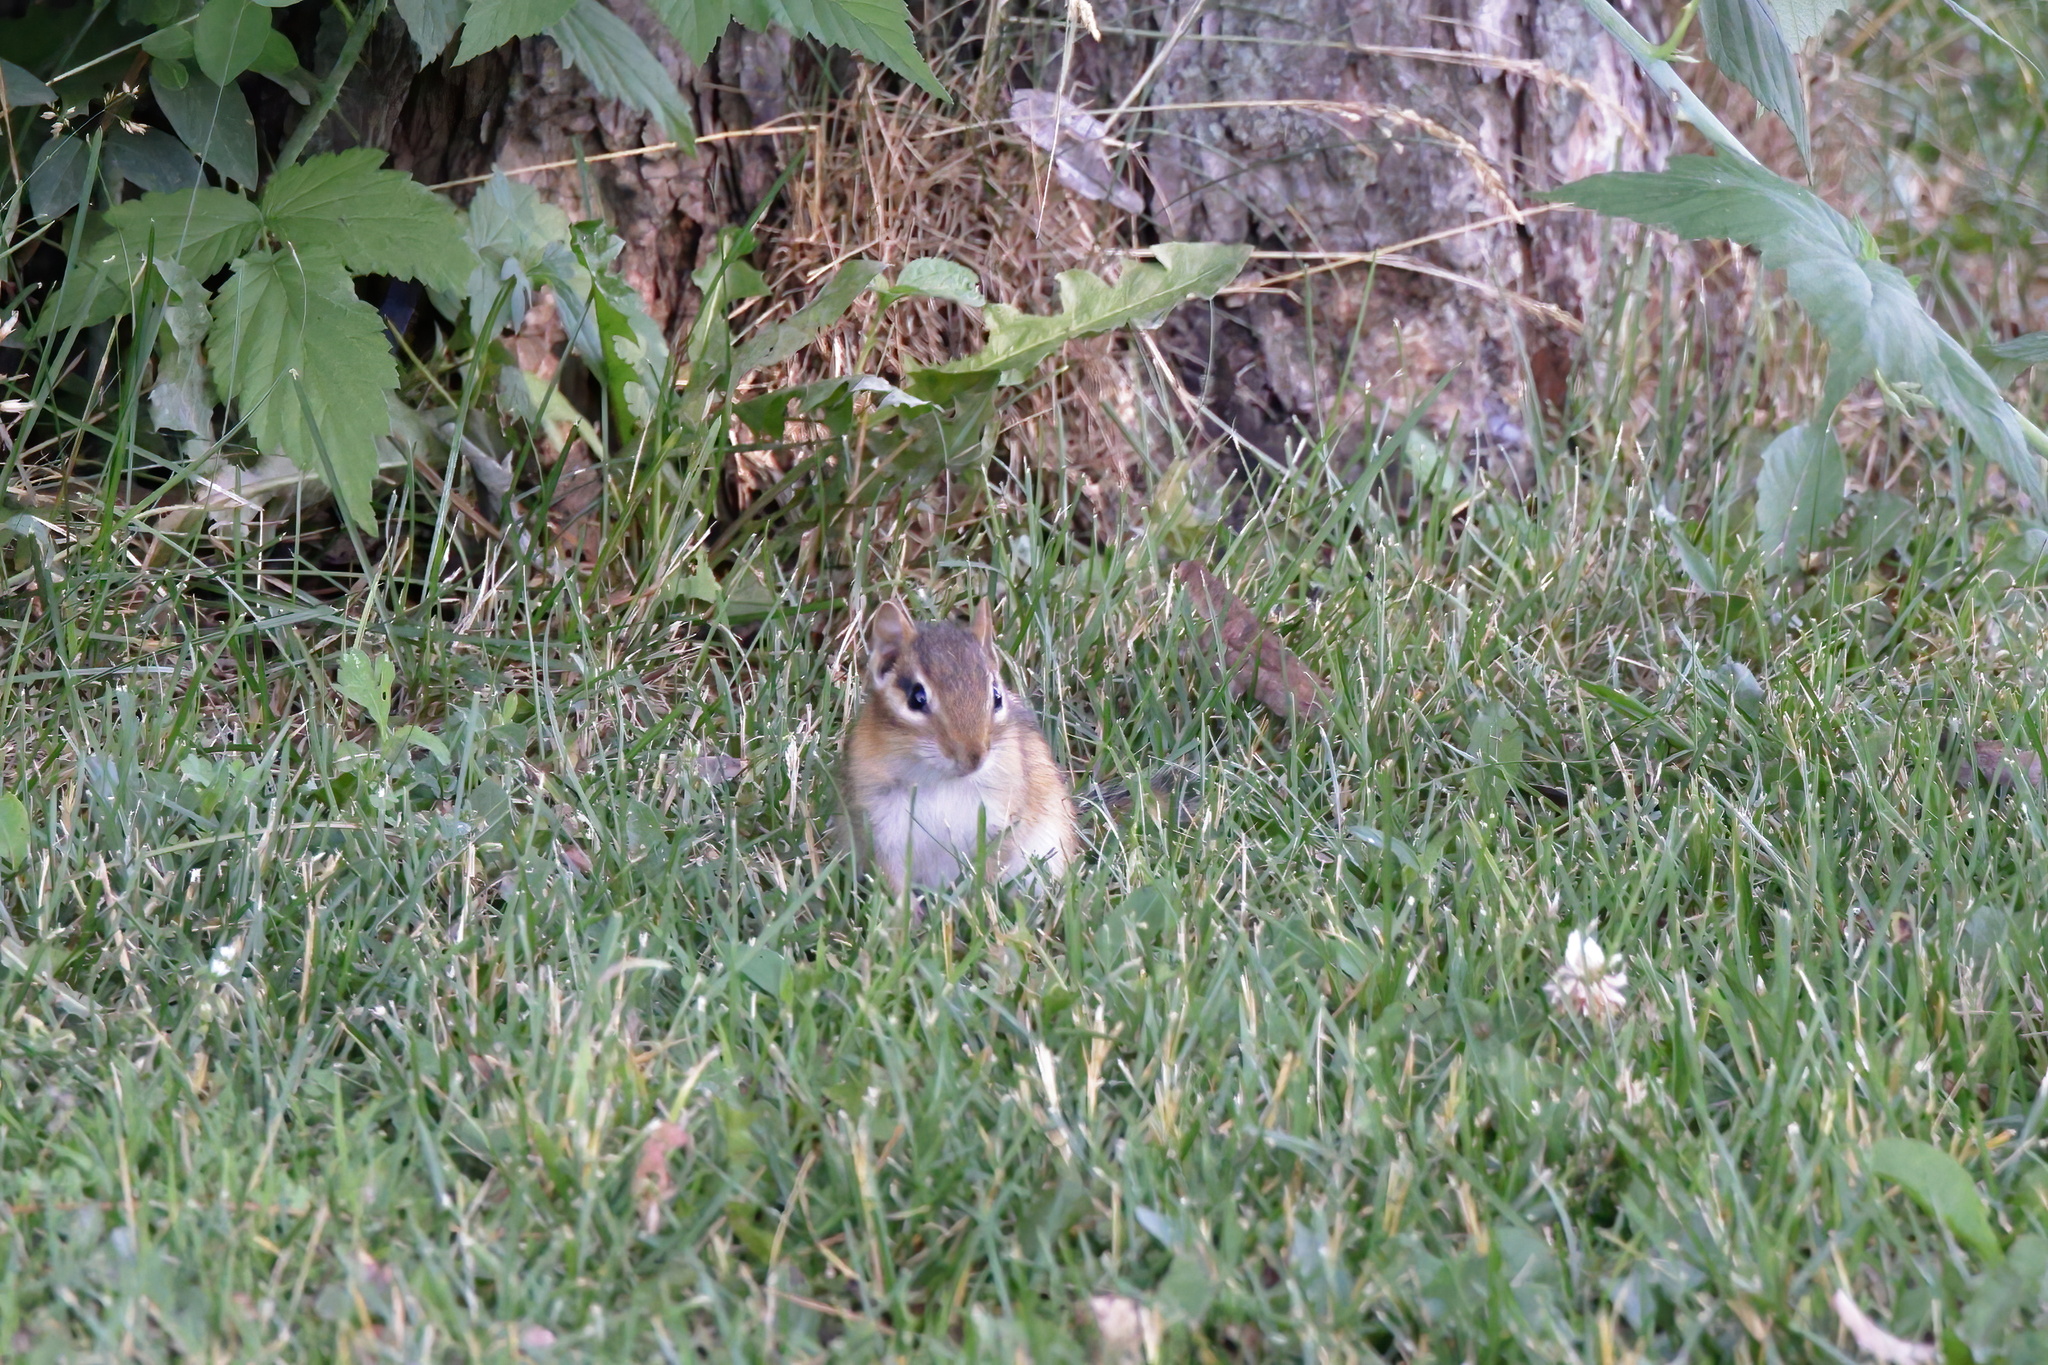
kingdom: Animalia
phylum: Chordata
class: Mammalia
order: Rodentia
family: Sciuridae
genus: Tamias
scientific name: Tamias striatus
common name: Eastern chipmunk
